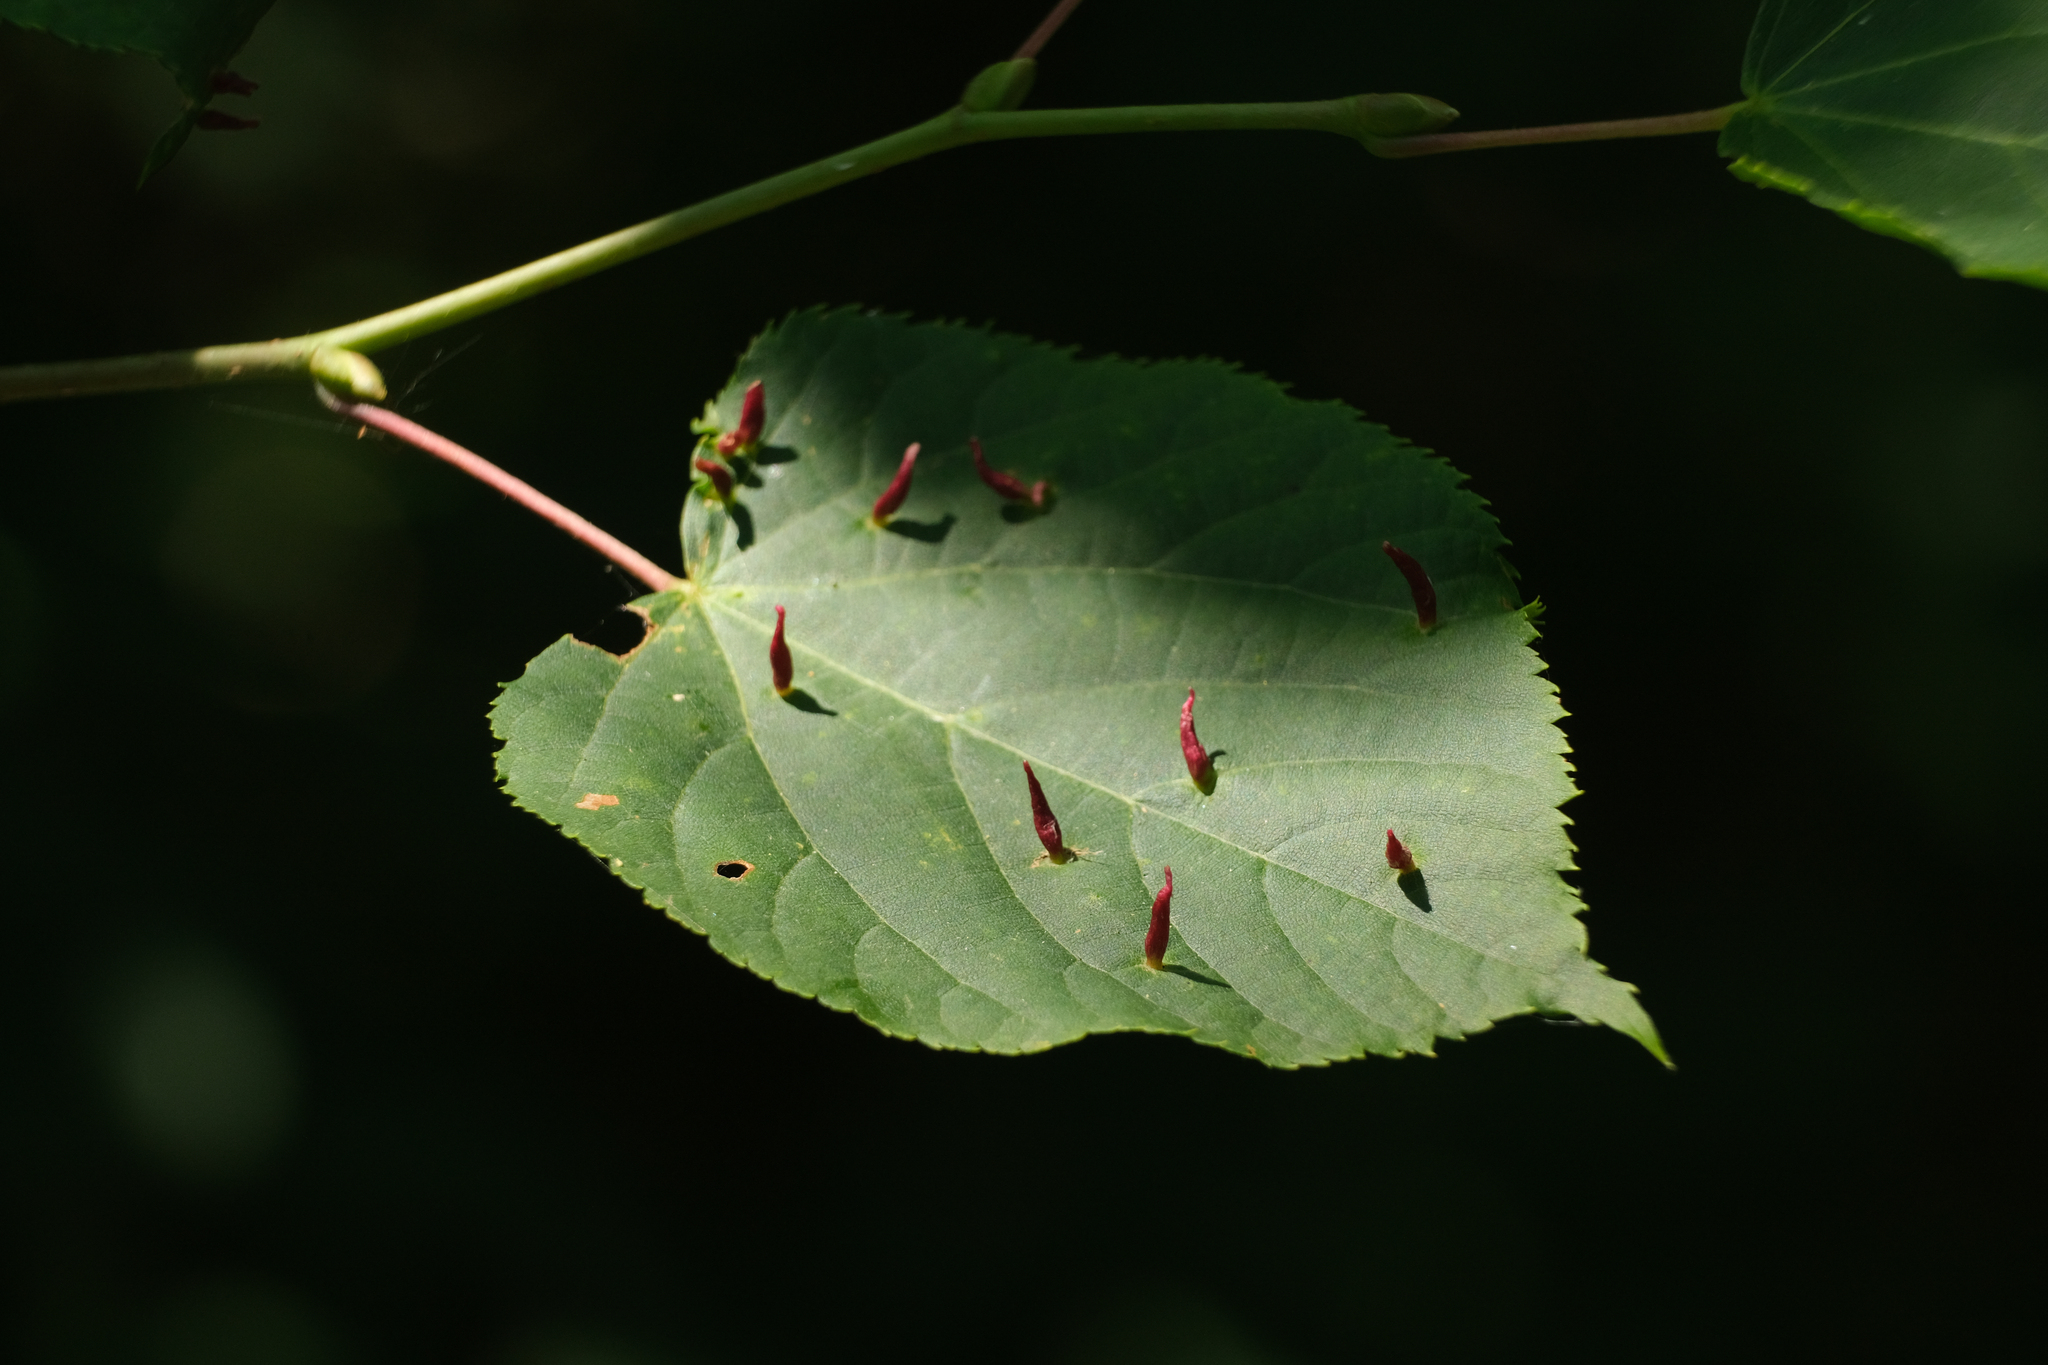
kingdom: Animalia
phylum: Arthropoda
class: Arachnida
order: Trombidiformes
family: Eriophyidae
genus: Eriophyes
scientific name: Eriophyes tiliae
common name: Red nail gall mite
